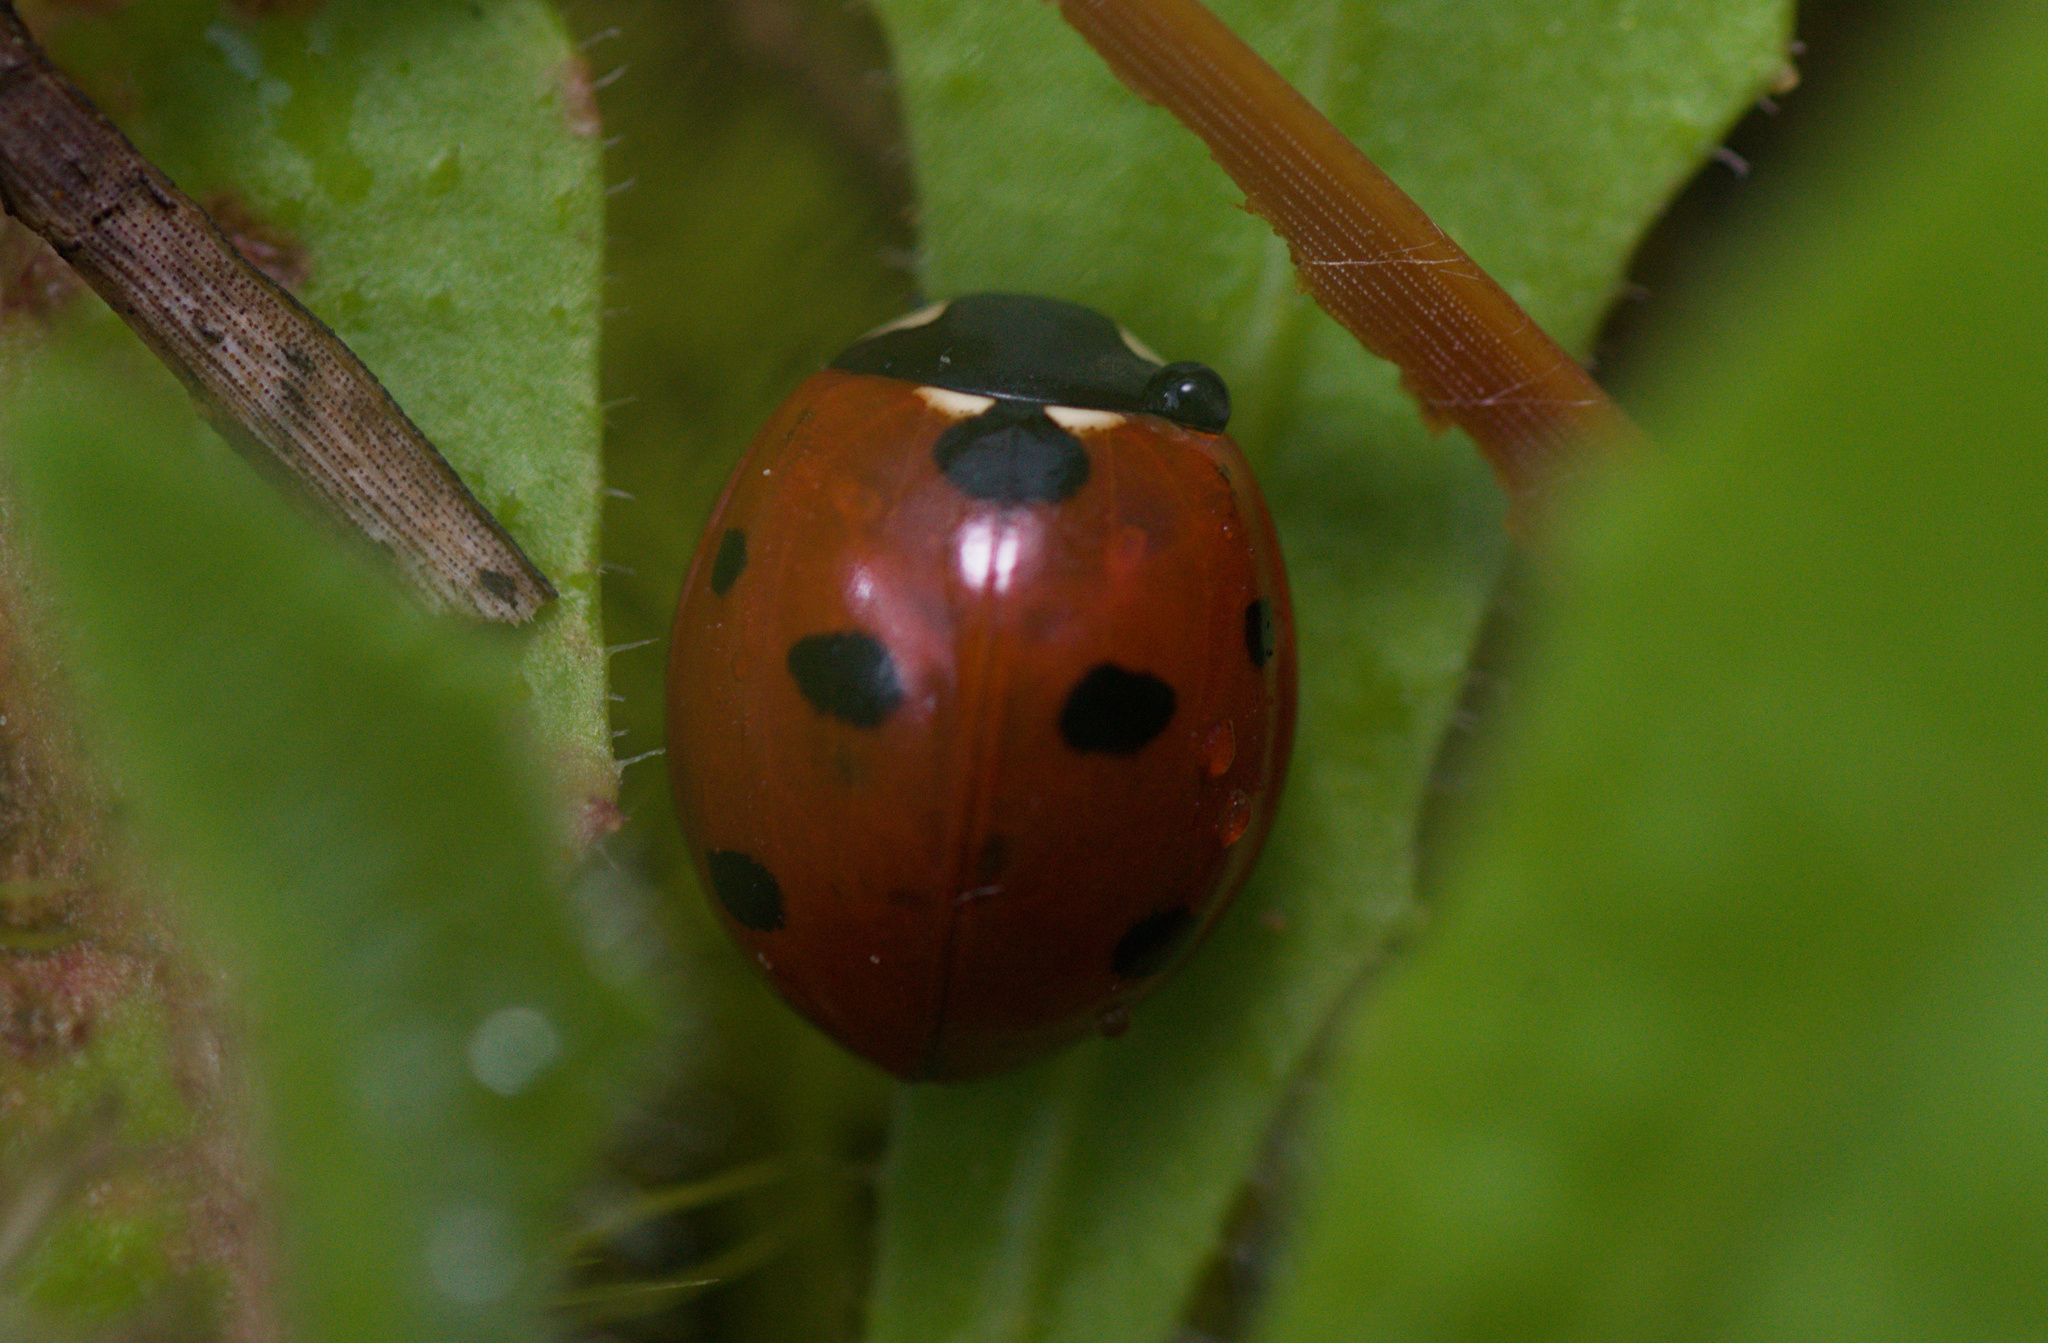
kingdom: Animalia
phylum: Arthropoda
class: Insecta
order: Coleoptera
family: Coccinellidae
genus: Coccinella
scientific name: Coccinella septempunctata
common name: Sevenspotted lady beetle
